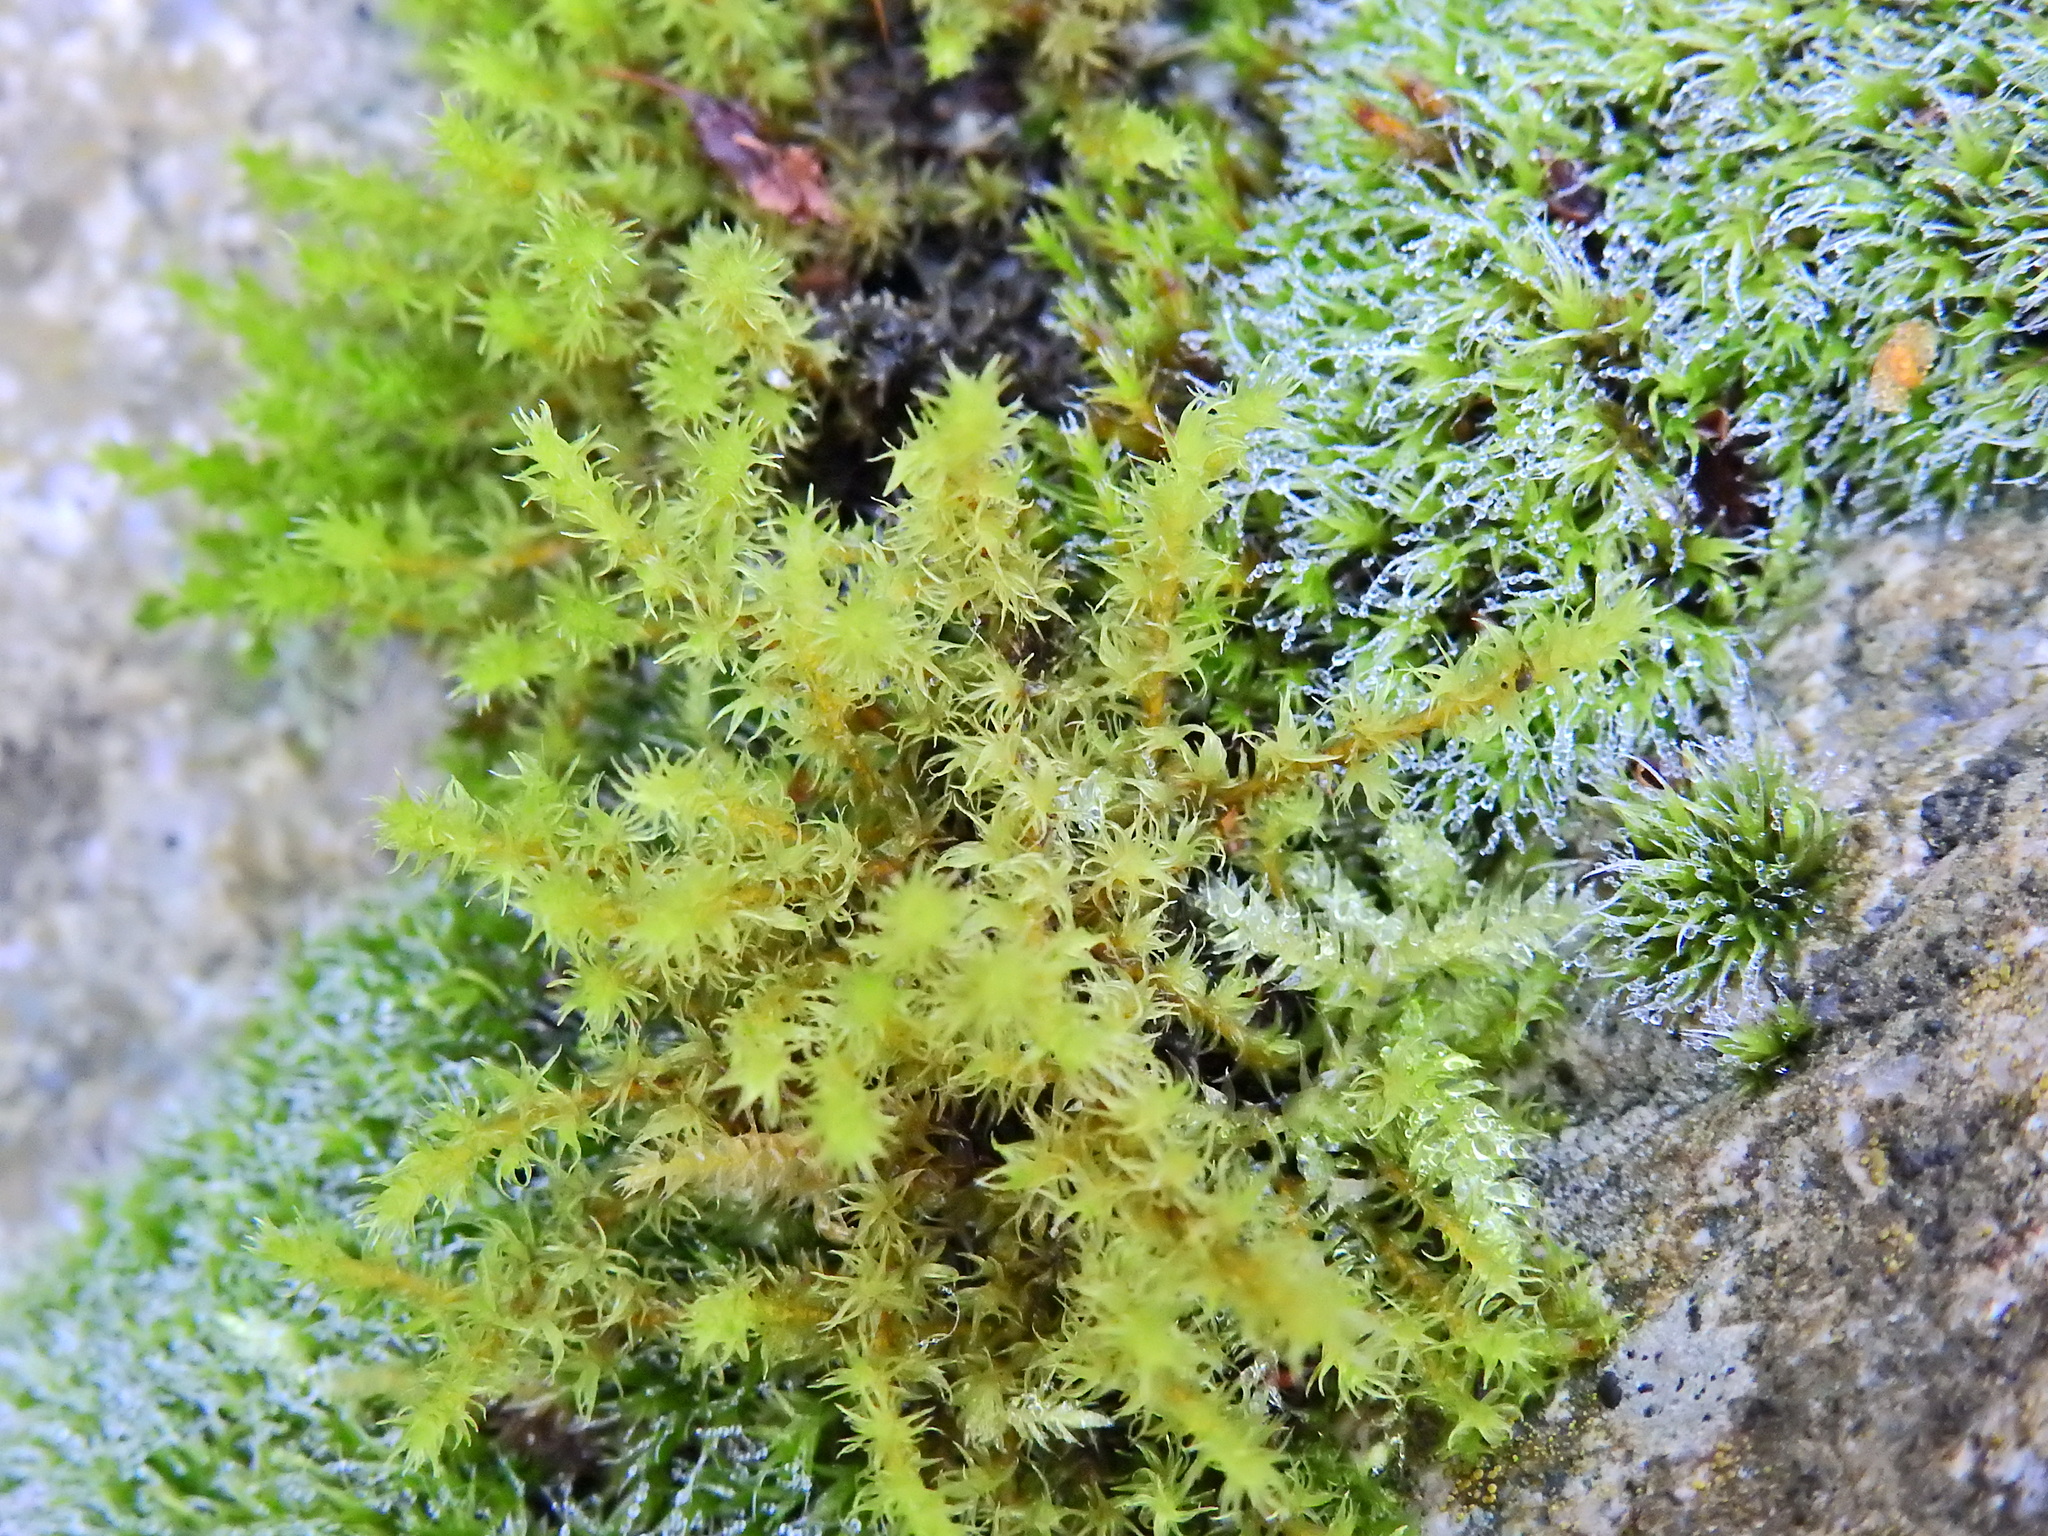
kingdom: Plantae
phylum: Bryophyta
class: Bryopsida
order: Grimmiales
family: Grimmiaceae
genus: Dilutineuron
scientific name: Dilutineuron fasciculare
